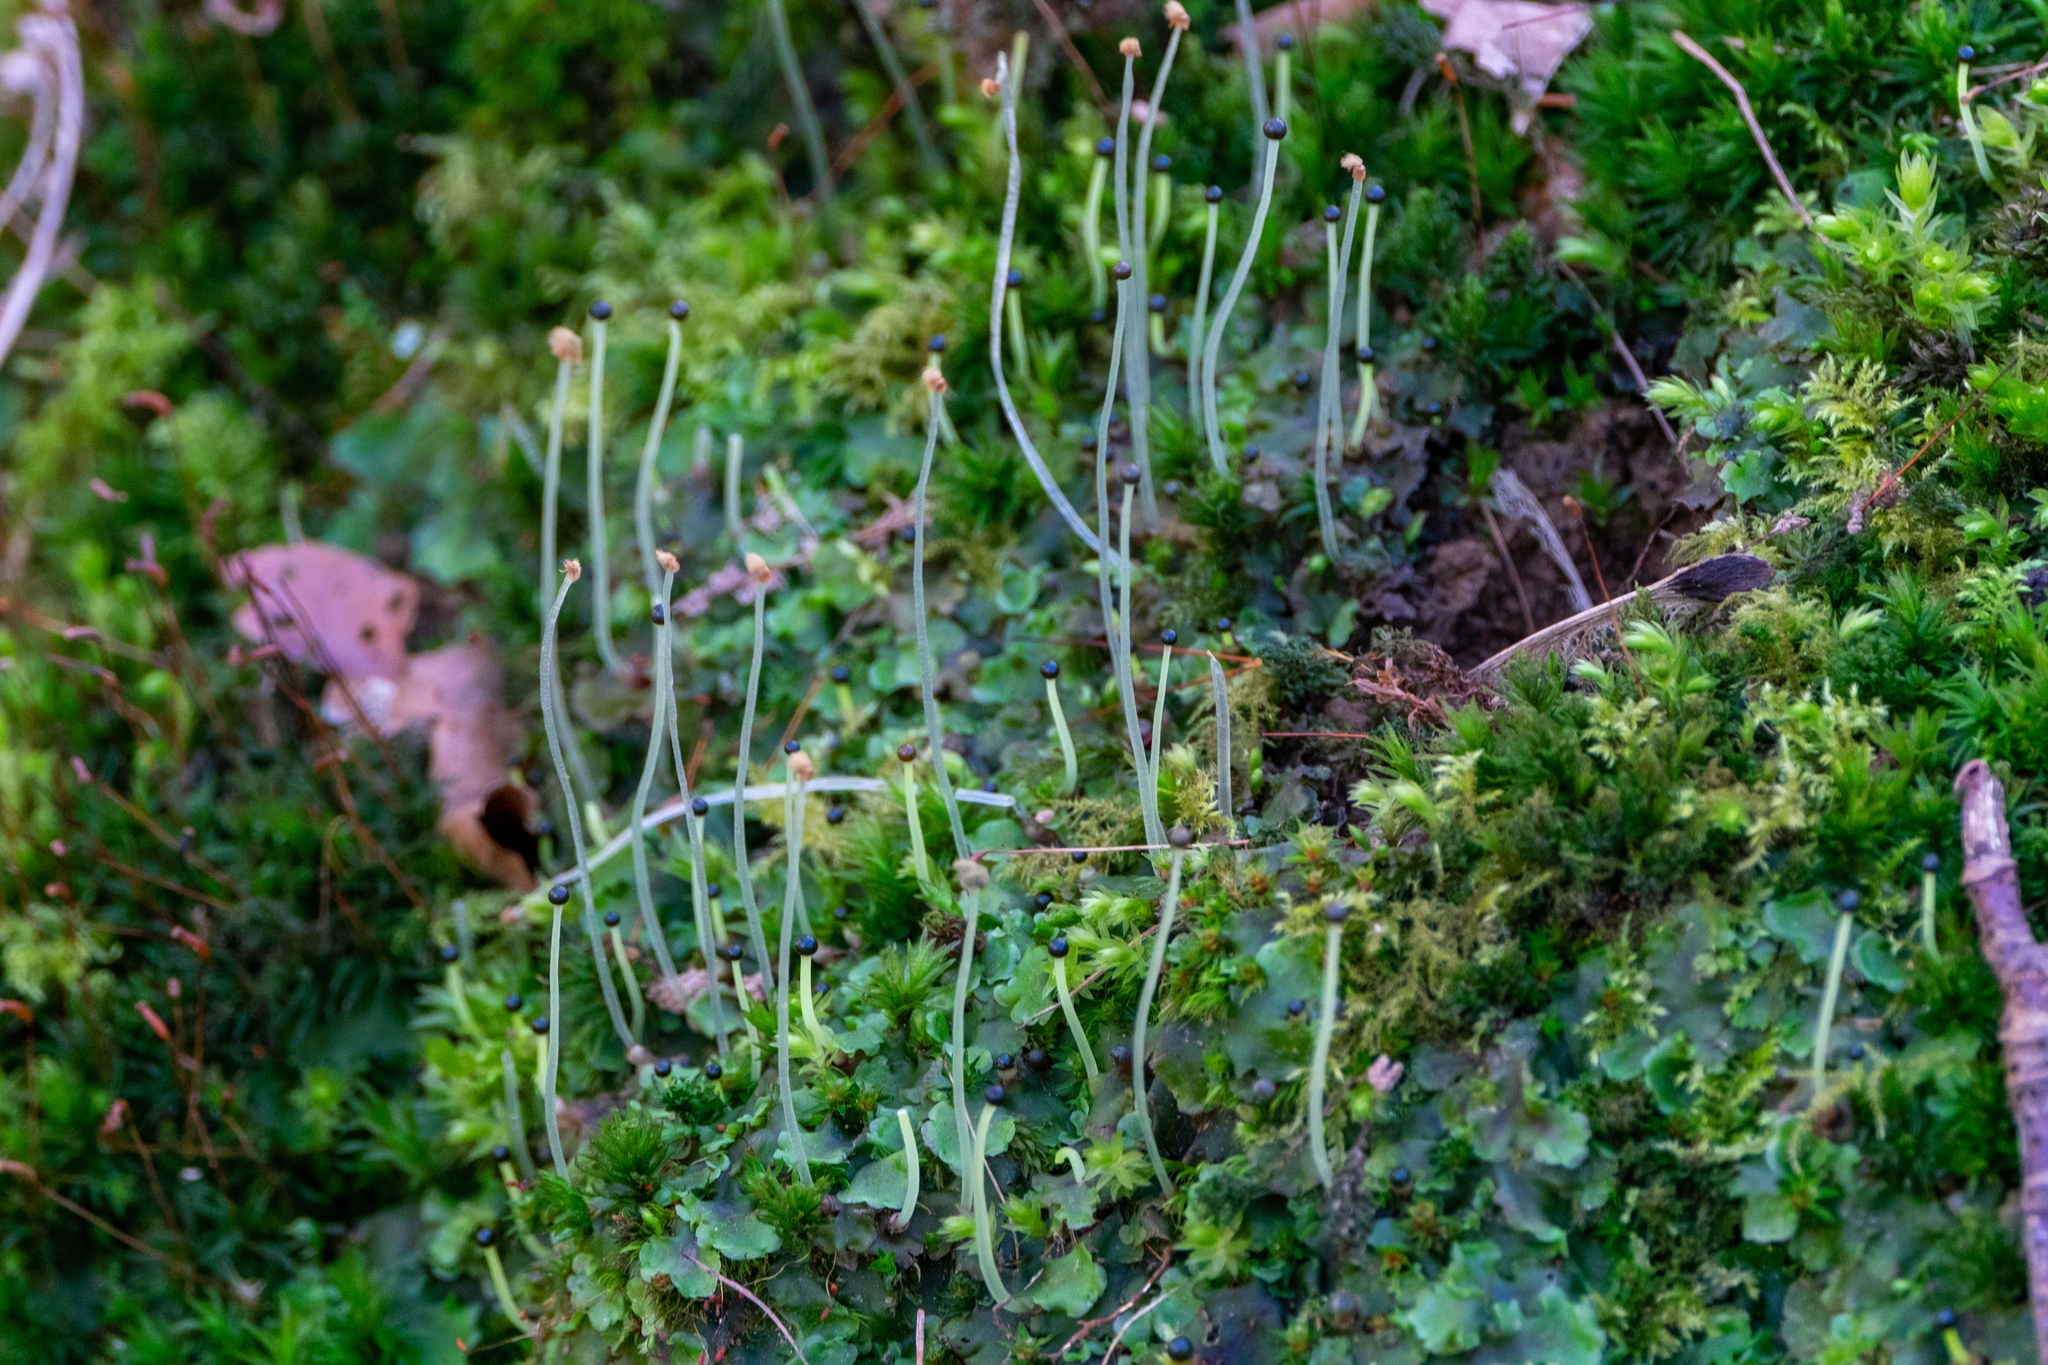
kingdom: Plantae
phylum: Marchantiophyta
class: Jungermanniopsida
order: Pelliales
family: Pelliaceae
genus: Pellia
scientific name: Pellia epiphylla
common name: Common pellia
